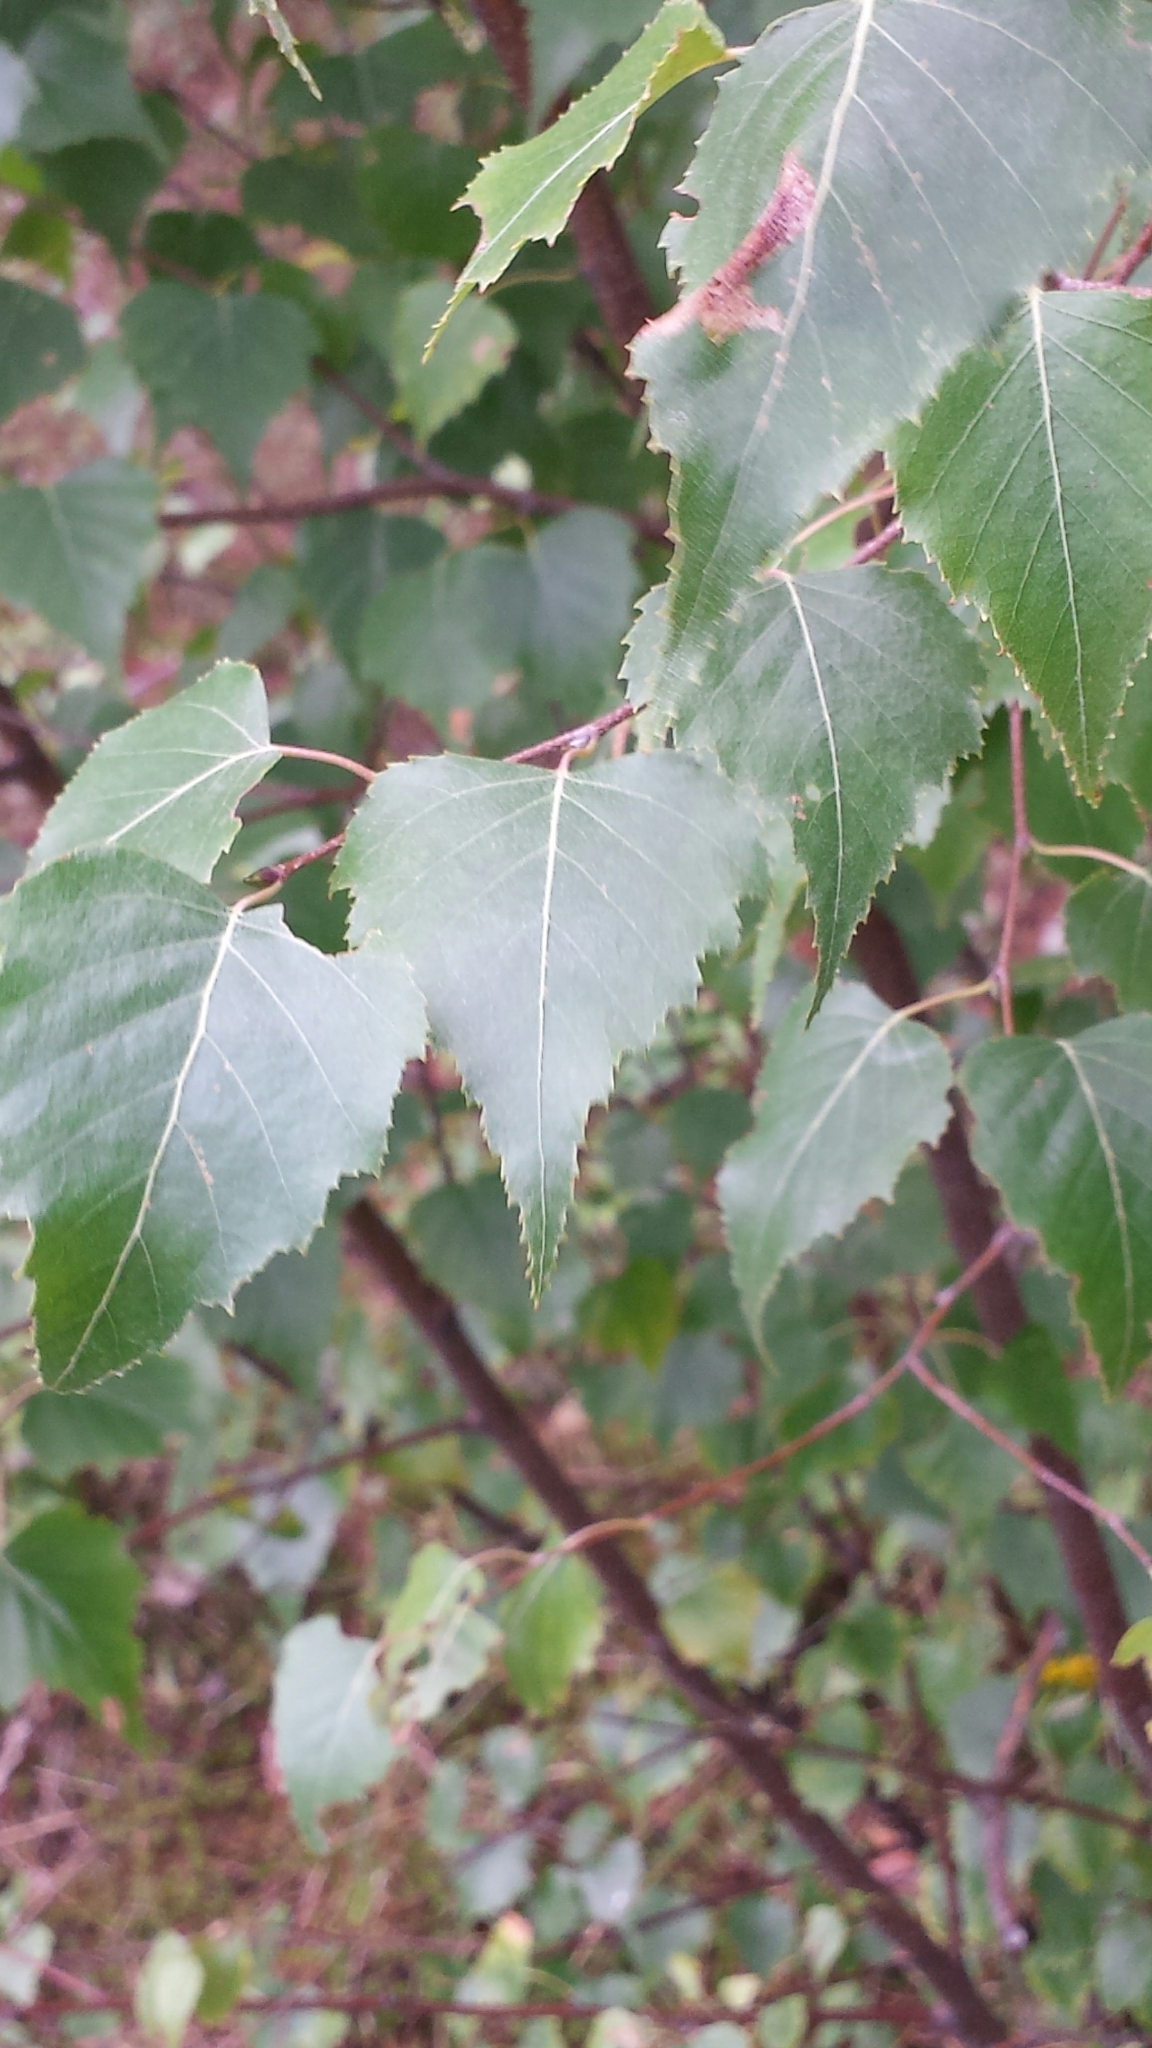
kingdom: Plantae
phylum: Tracheophyta
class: Magnoliopsida
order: Fagales
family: Betulaceae
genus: Betula
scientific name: Betula populifolia
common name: Fire birch
